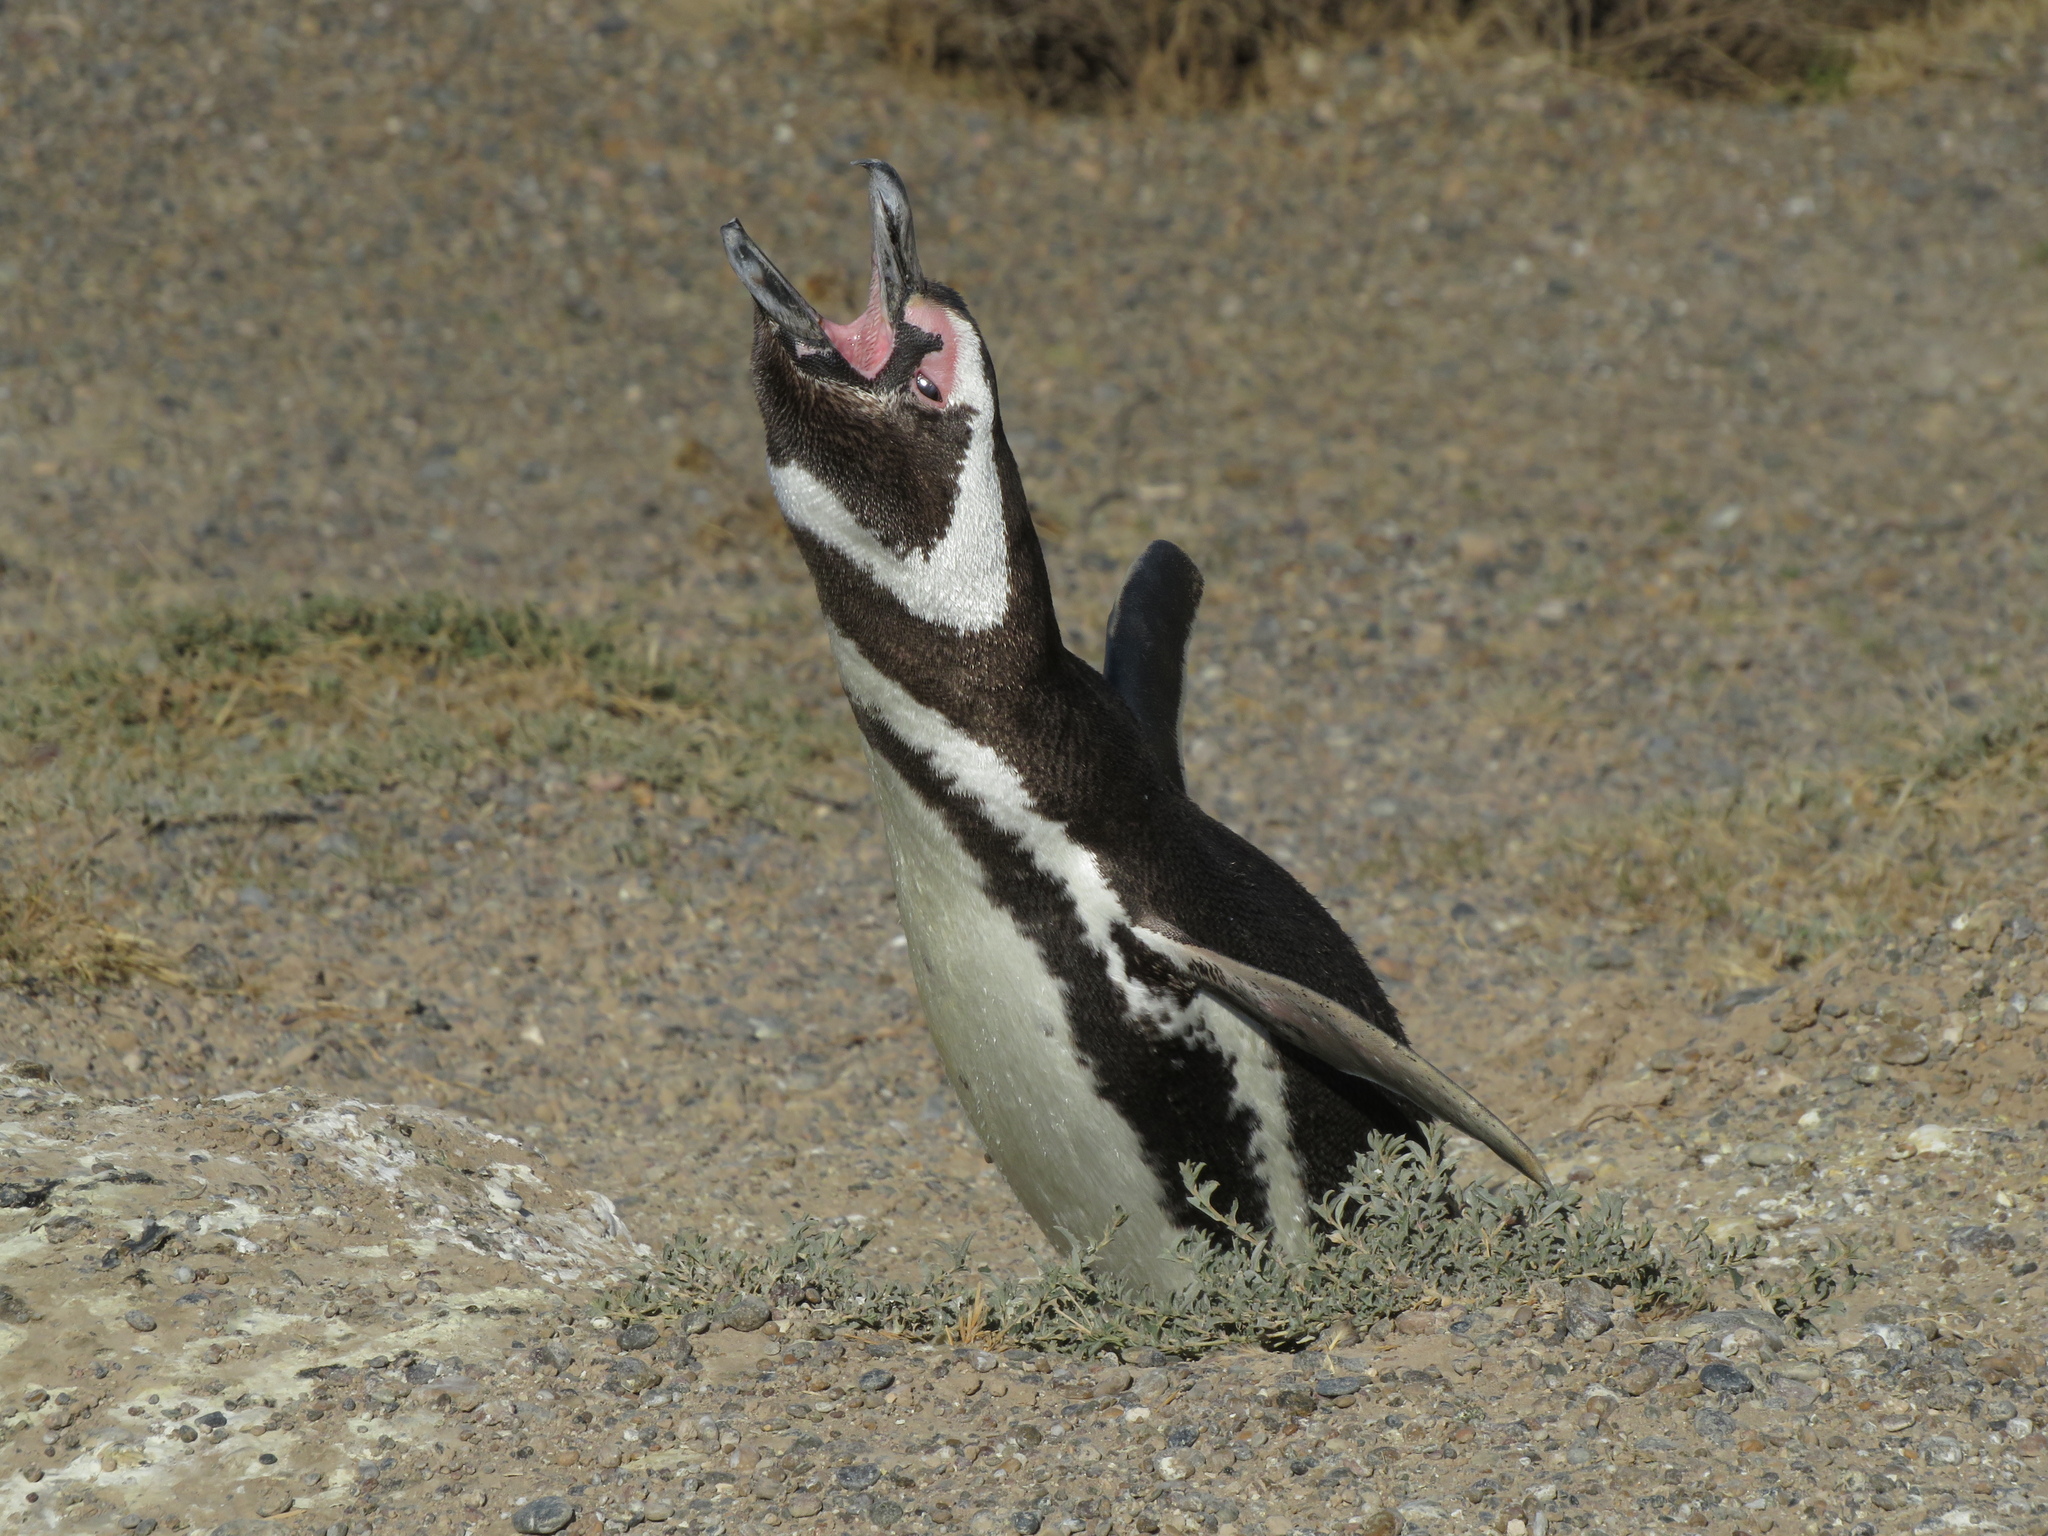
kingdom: Animalia
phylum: Chordata
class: Aves
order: Sphenisciformes
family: Spheniscidae
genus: Spheniscus
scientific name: Spheniscus magellanicus
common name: Magellanic penguin
